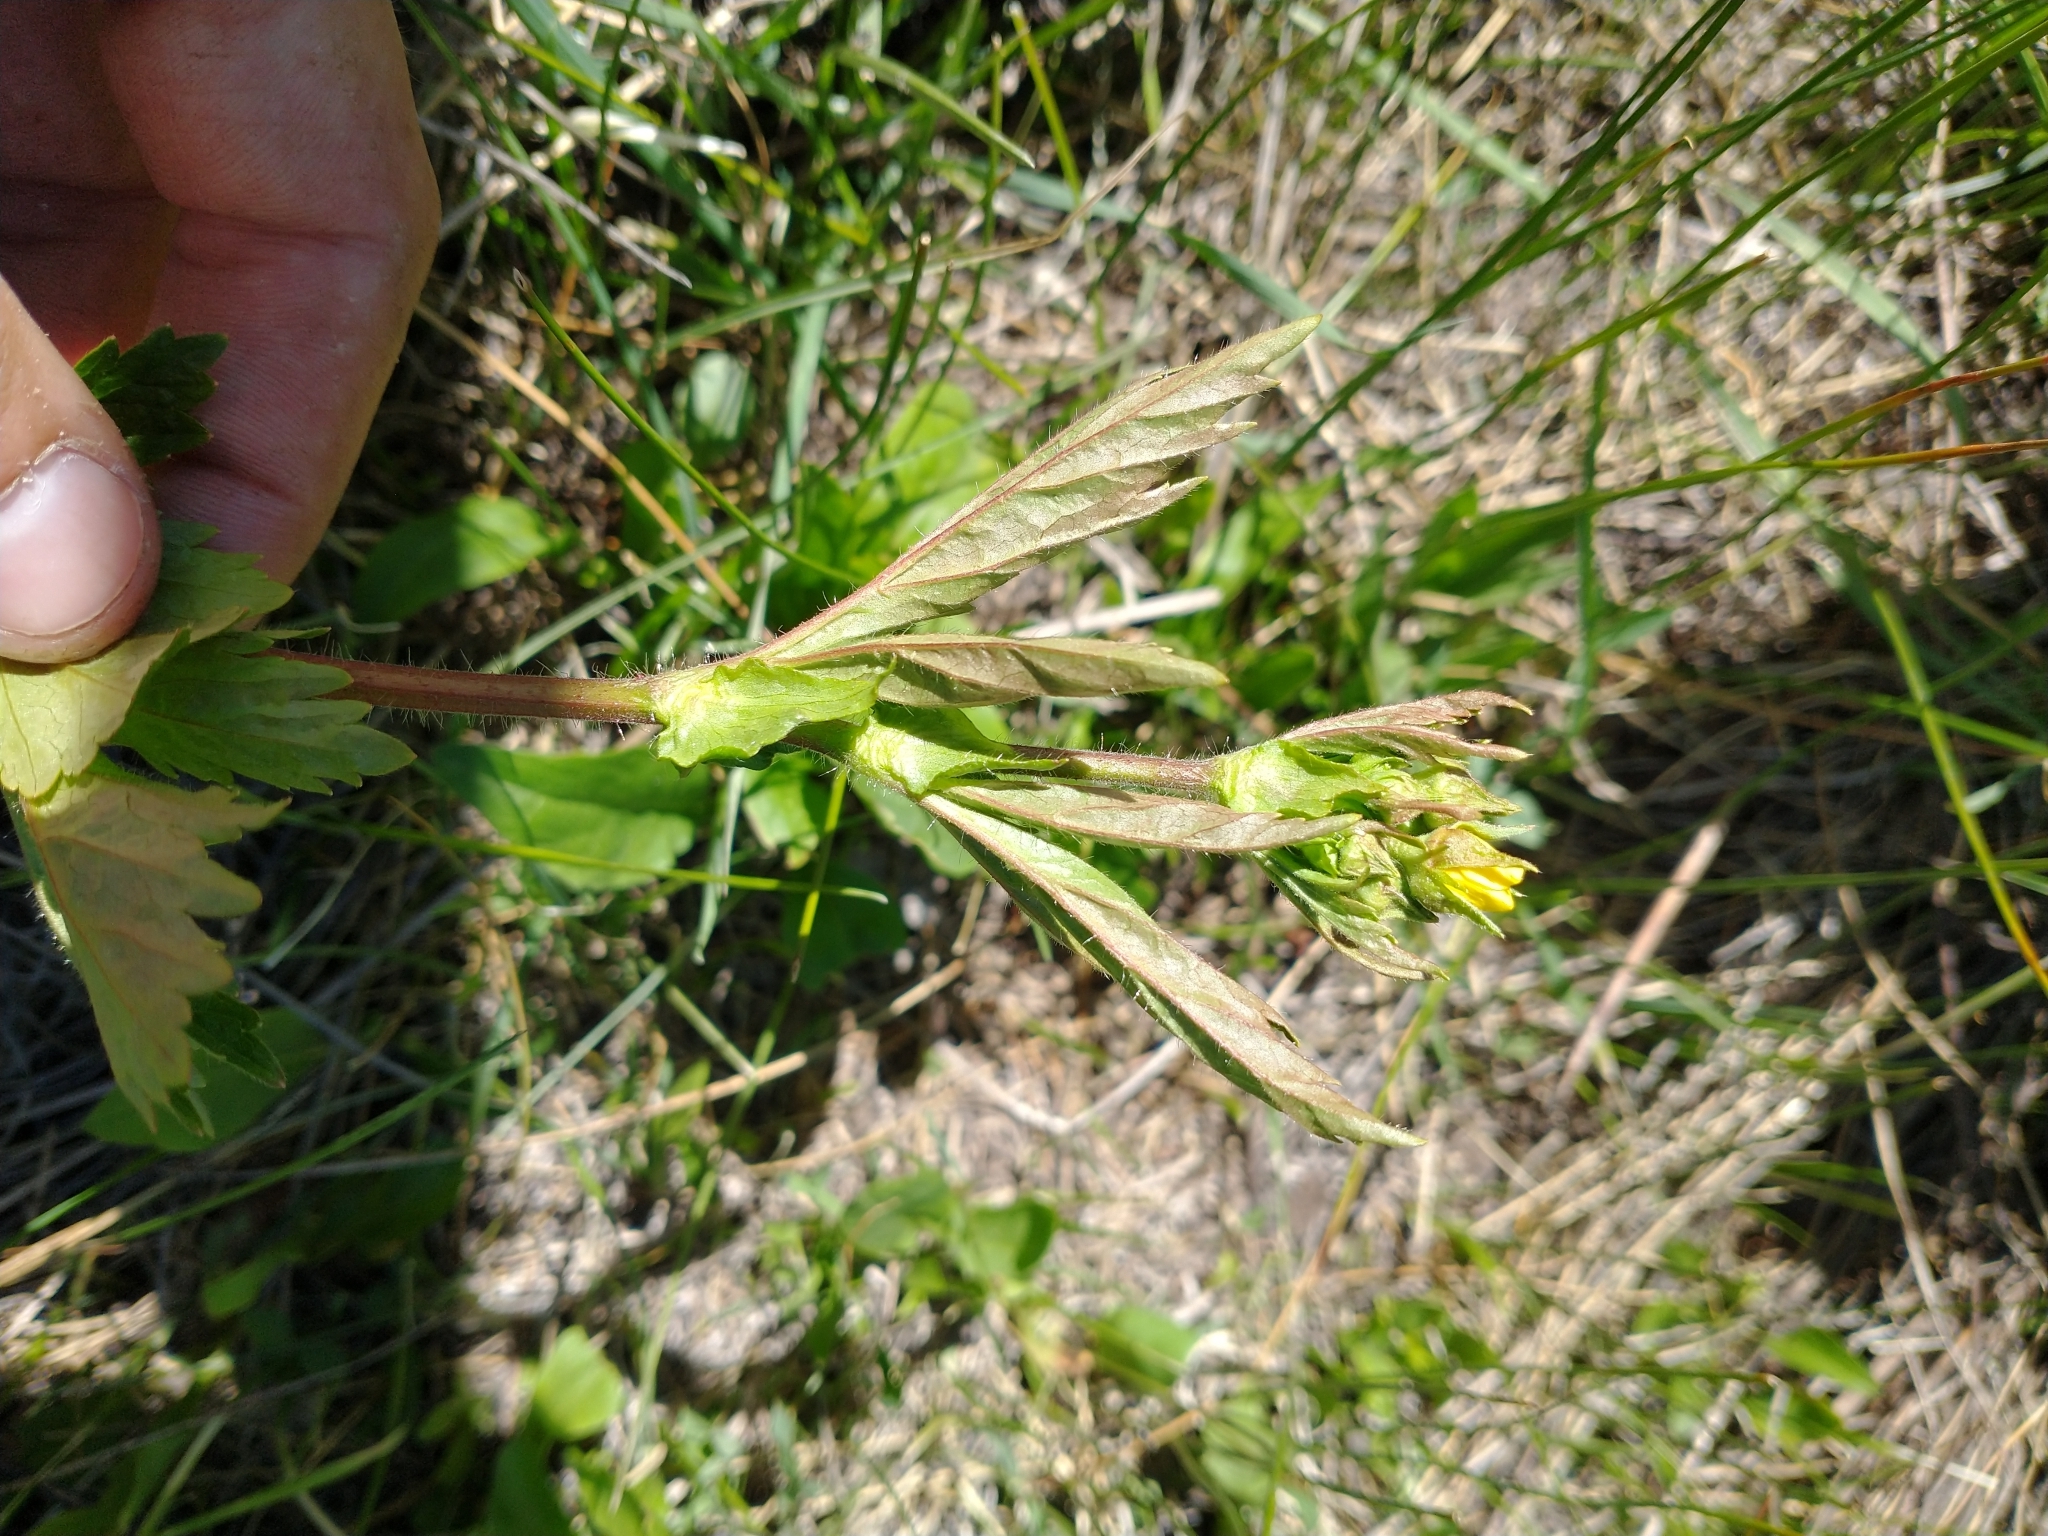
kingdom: Plantae
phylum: Tracheophyta
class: Magnoliopsida
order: Rosales
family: Rosaceae
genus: Geum
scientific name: Geum macrophyllum
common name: Large-leaved avens
